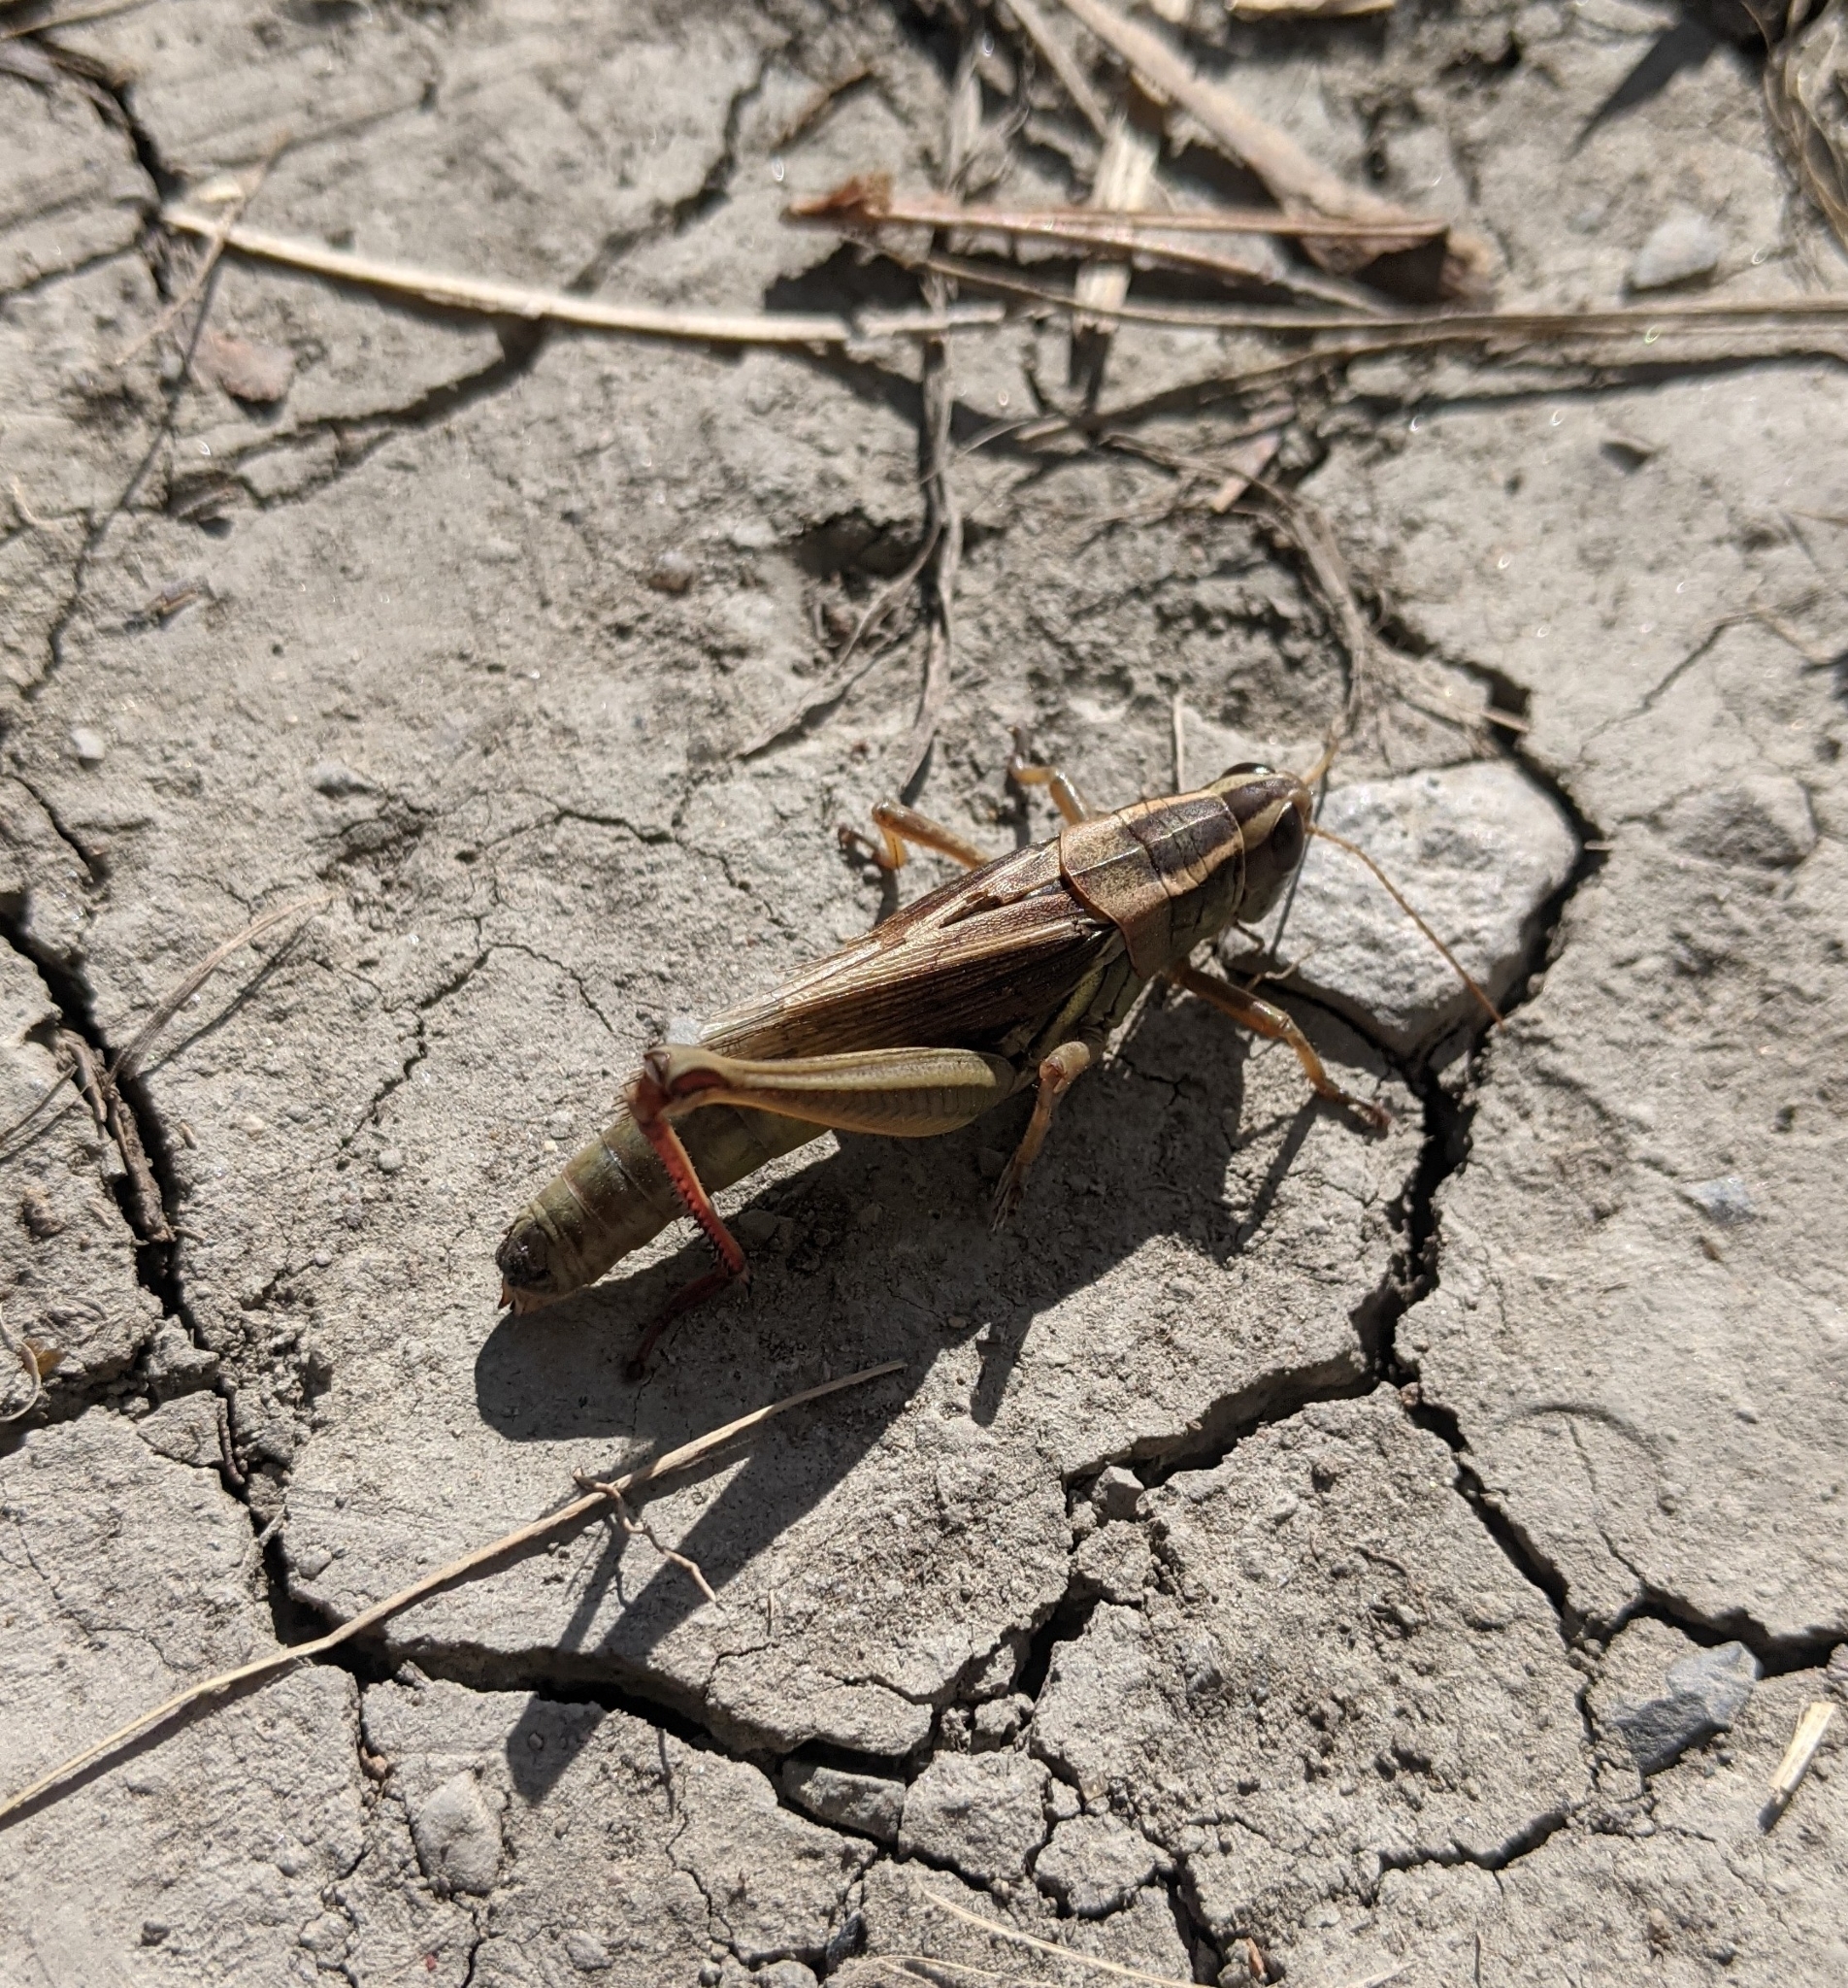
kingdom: Animalia
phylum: Arthropoda
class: Insecta
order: Orthoptera
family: Acrididae
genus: Melanoplus
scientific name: Melanoplus bivittatus
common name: Two-striped grasshopper
